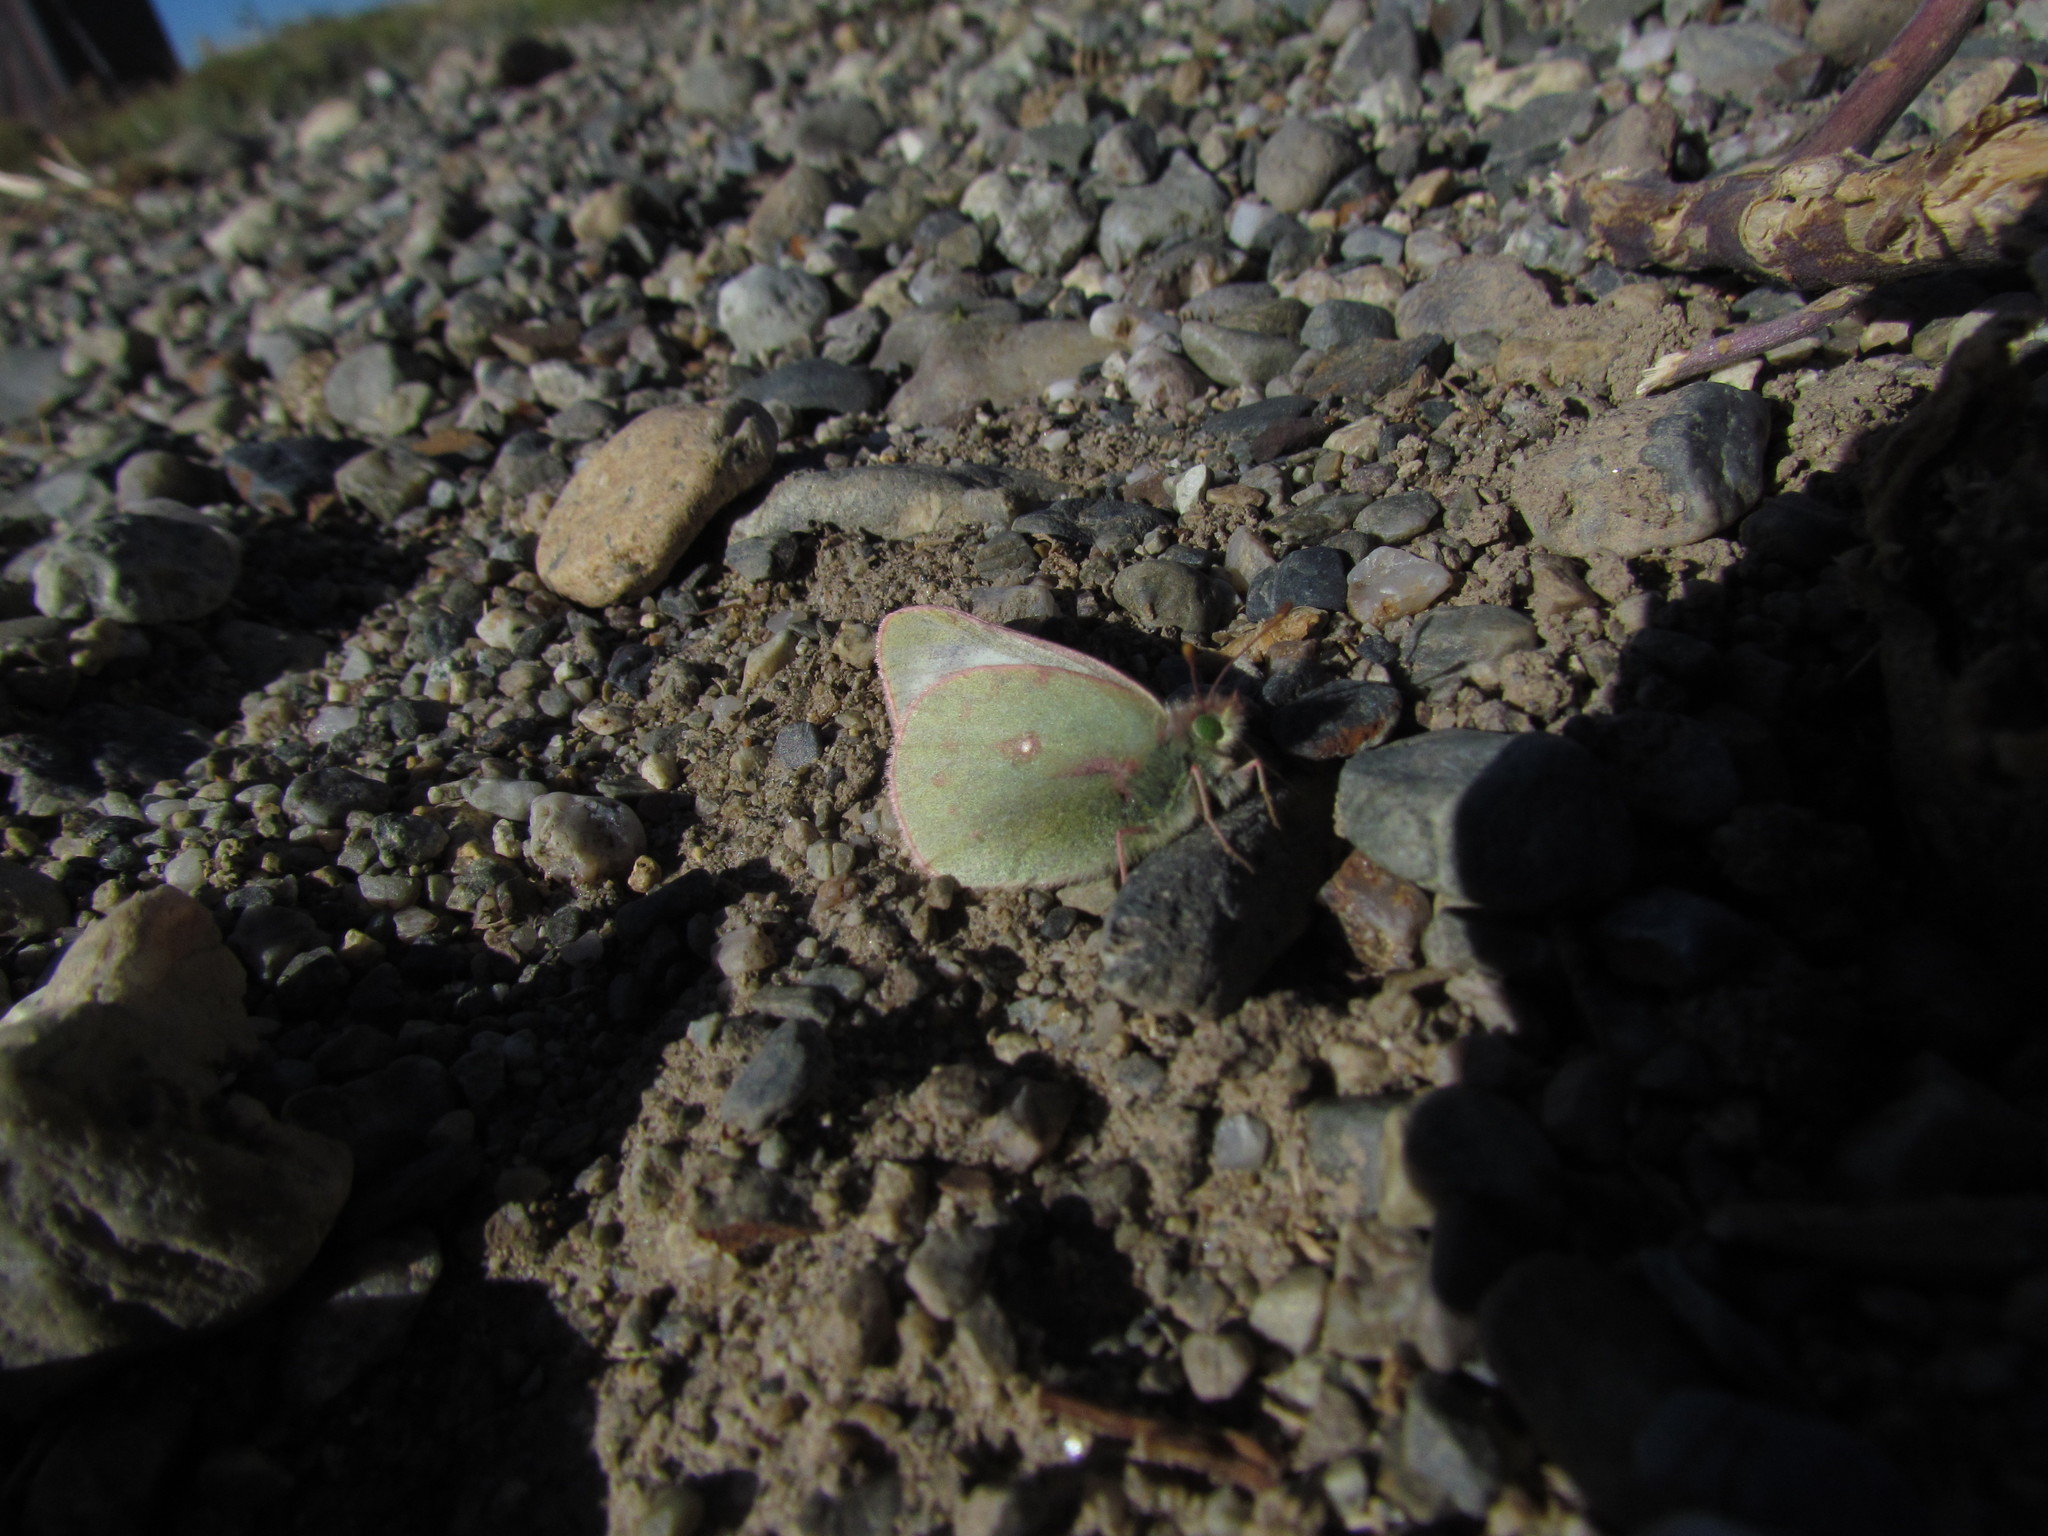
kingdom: Animalia
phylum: Arthropoda
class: Insecta
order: Lepidoptera
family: Pieridae
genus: Colias
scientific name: Colias vauthierii
